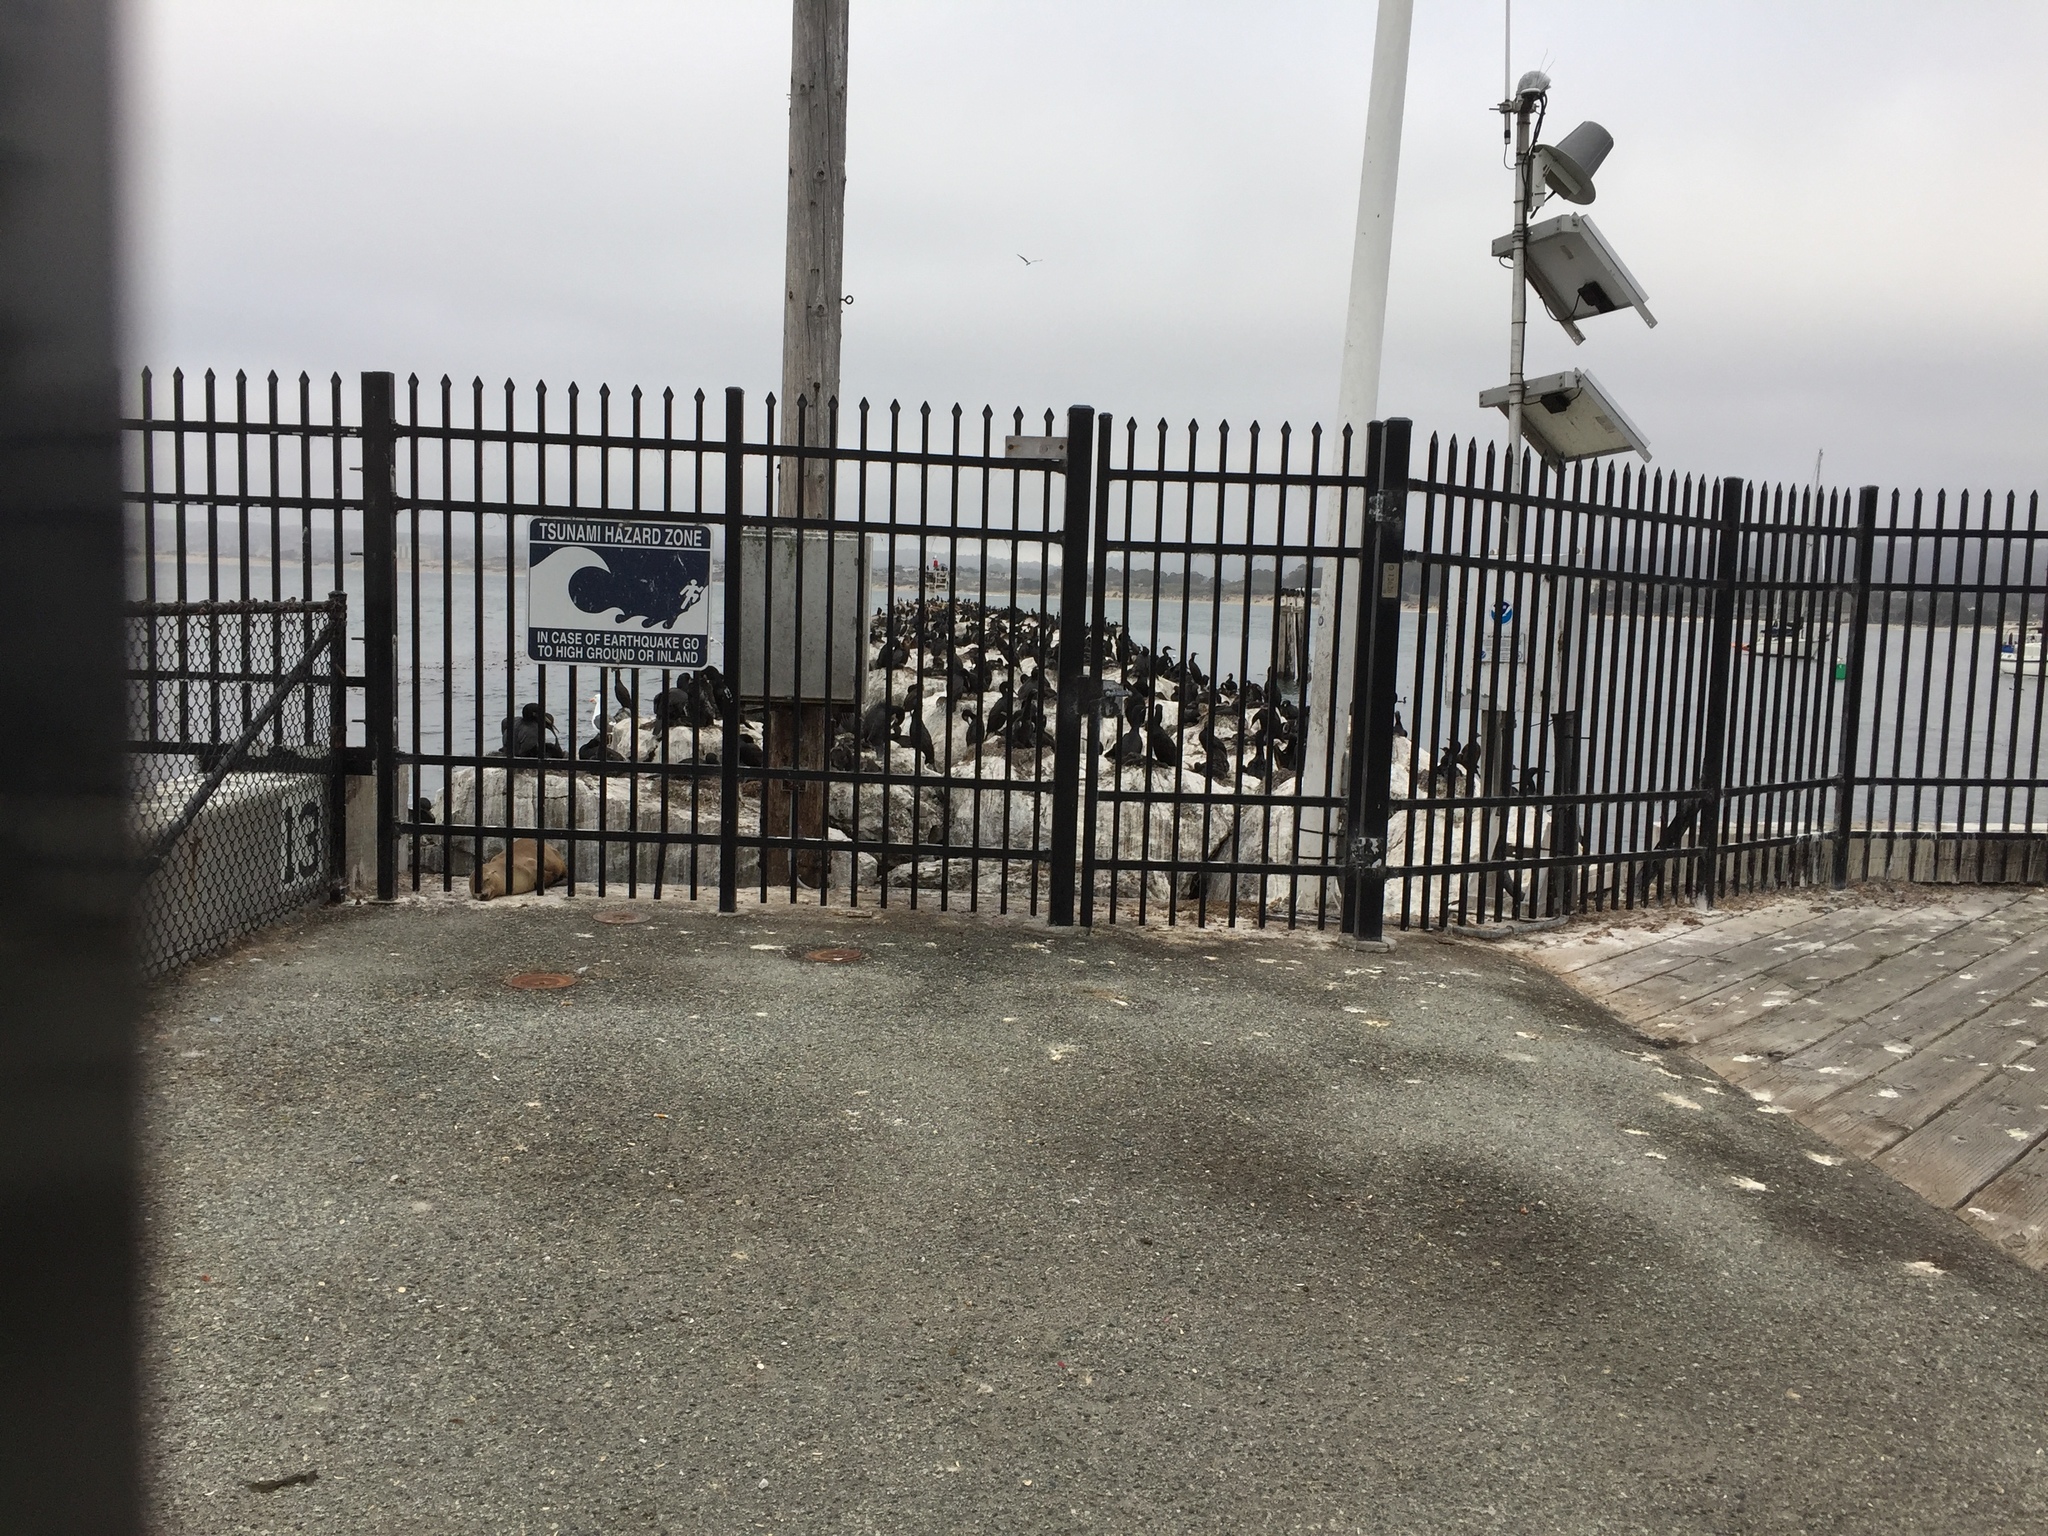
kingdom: Animalia
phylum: Chordata
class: Aves
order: Suliformes
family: Phalacrocoracidae
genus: Urile
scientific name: Urile penicillatus
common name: Brandt's cormorant
